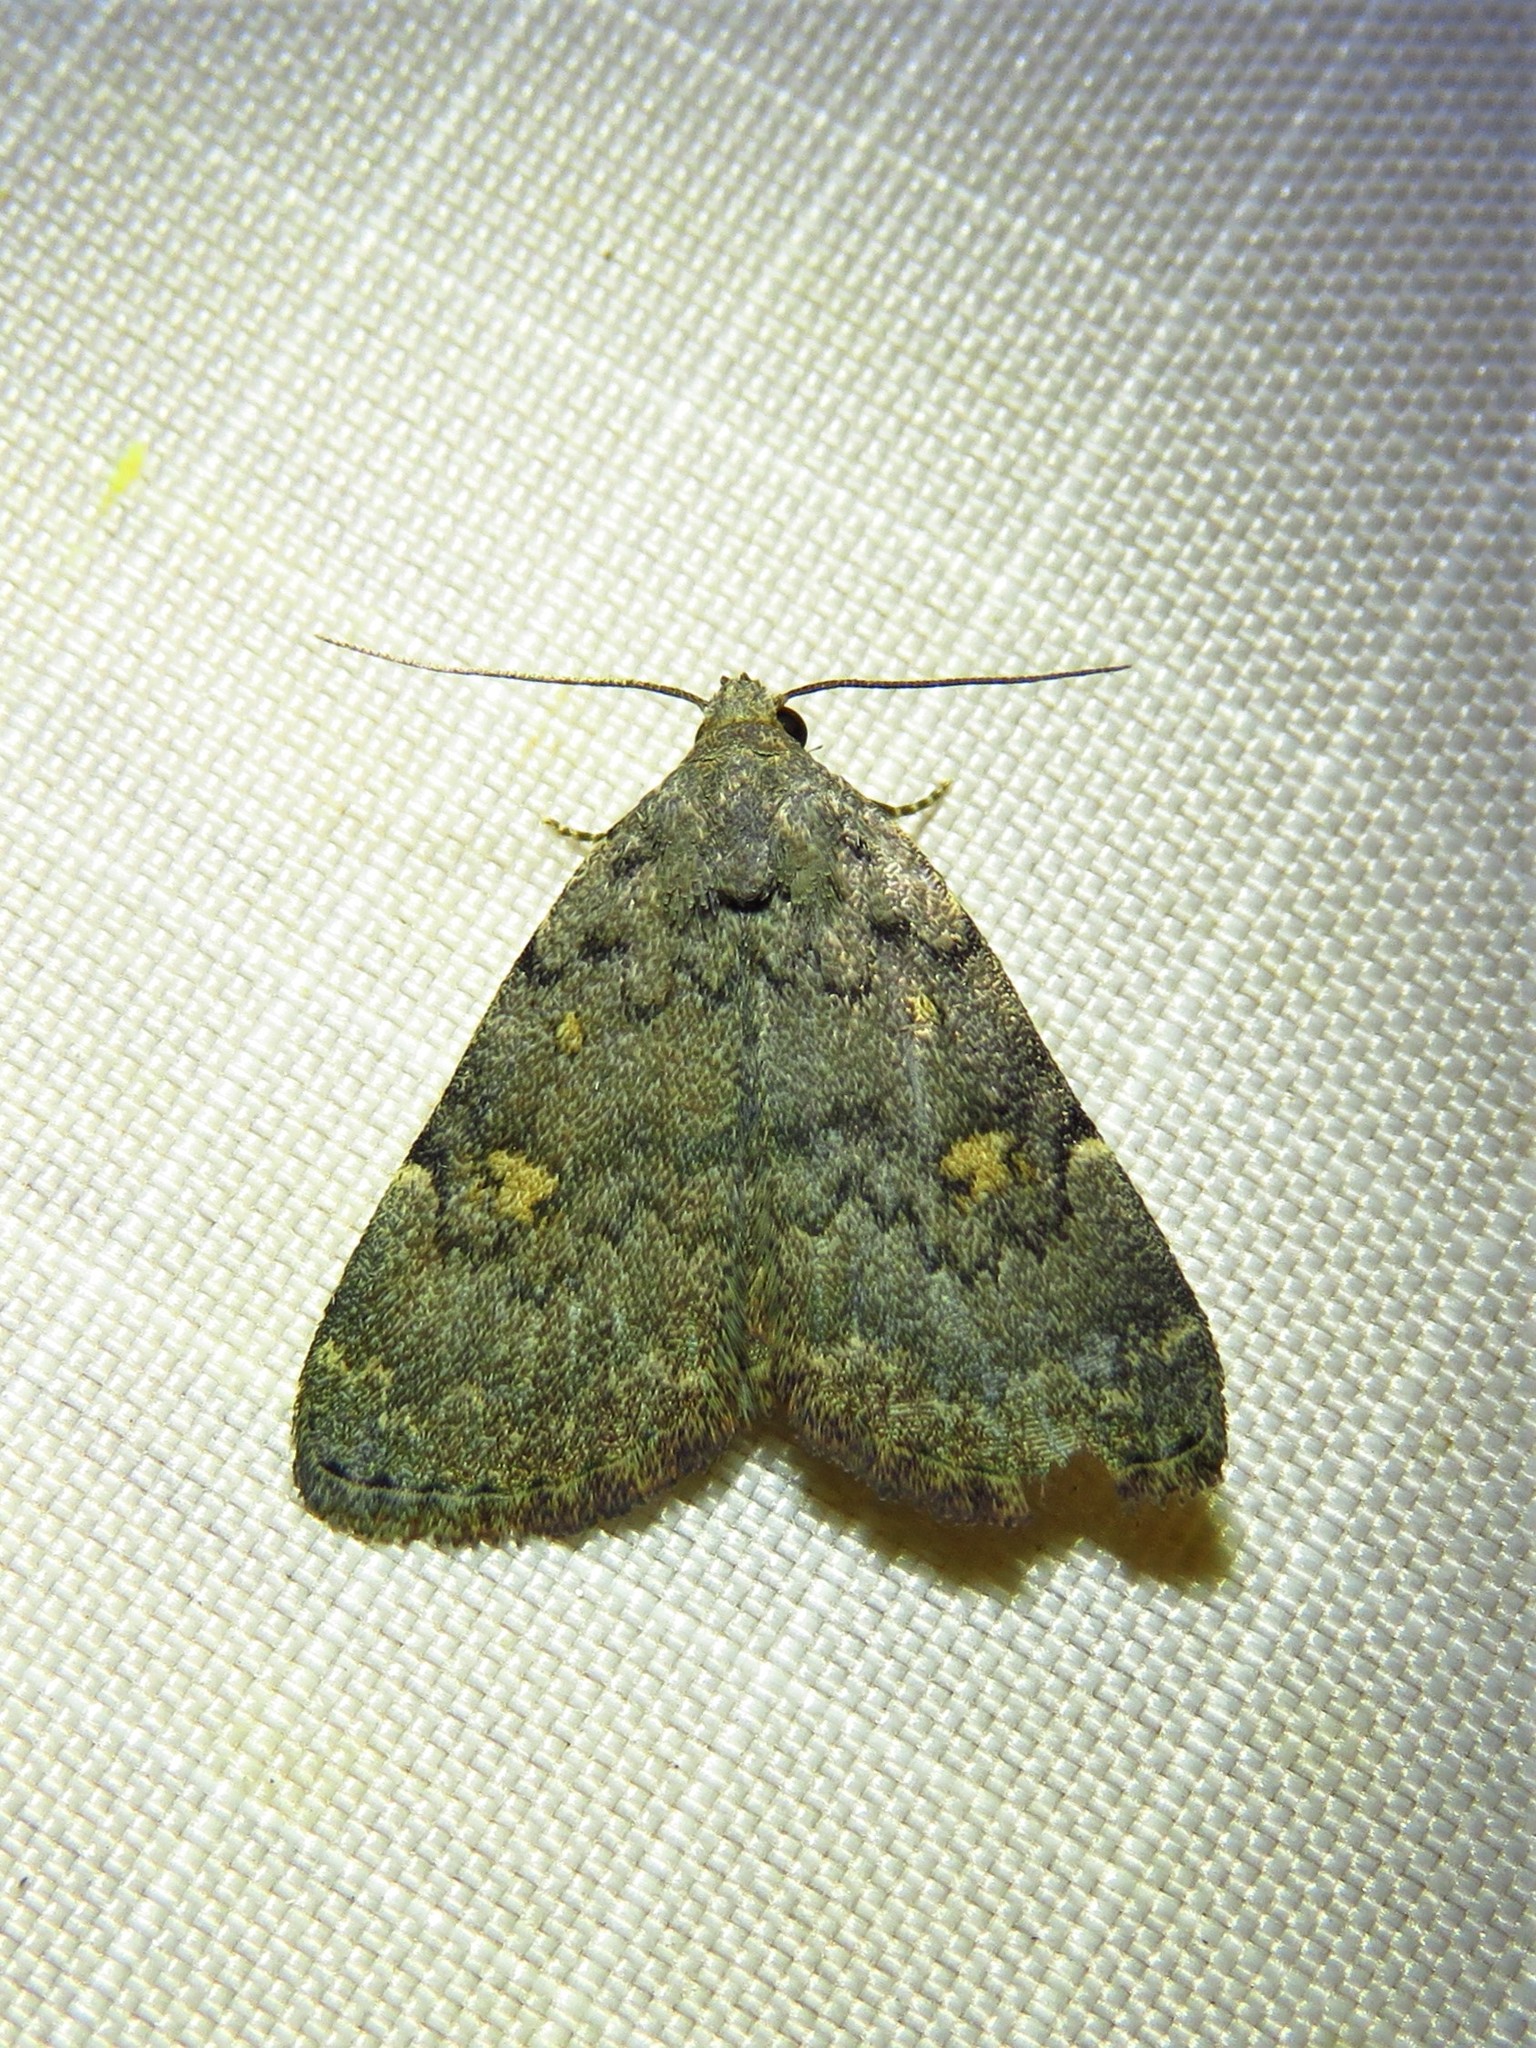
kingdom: Animalia
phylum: Arthropoda
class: Insecta
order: Lepidoptera
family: Erebidae
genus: Idia
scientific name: Idia aemula
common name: Common idia moth
